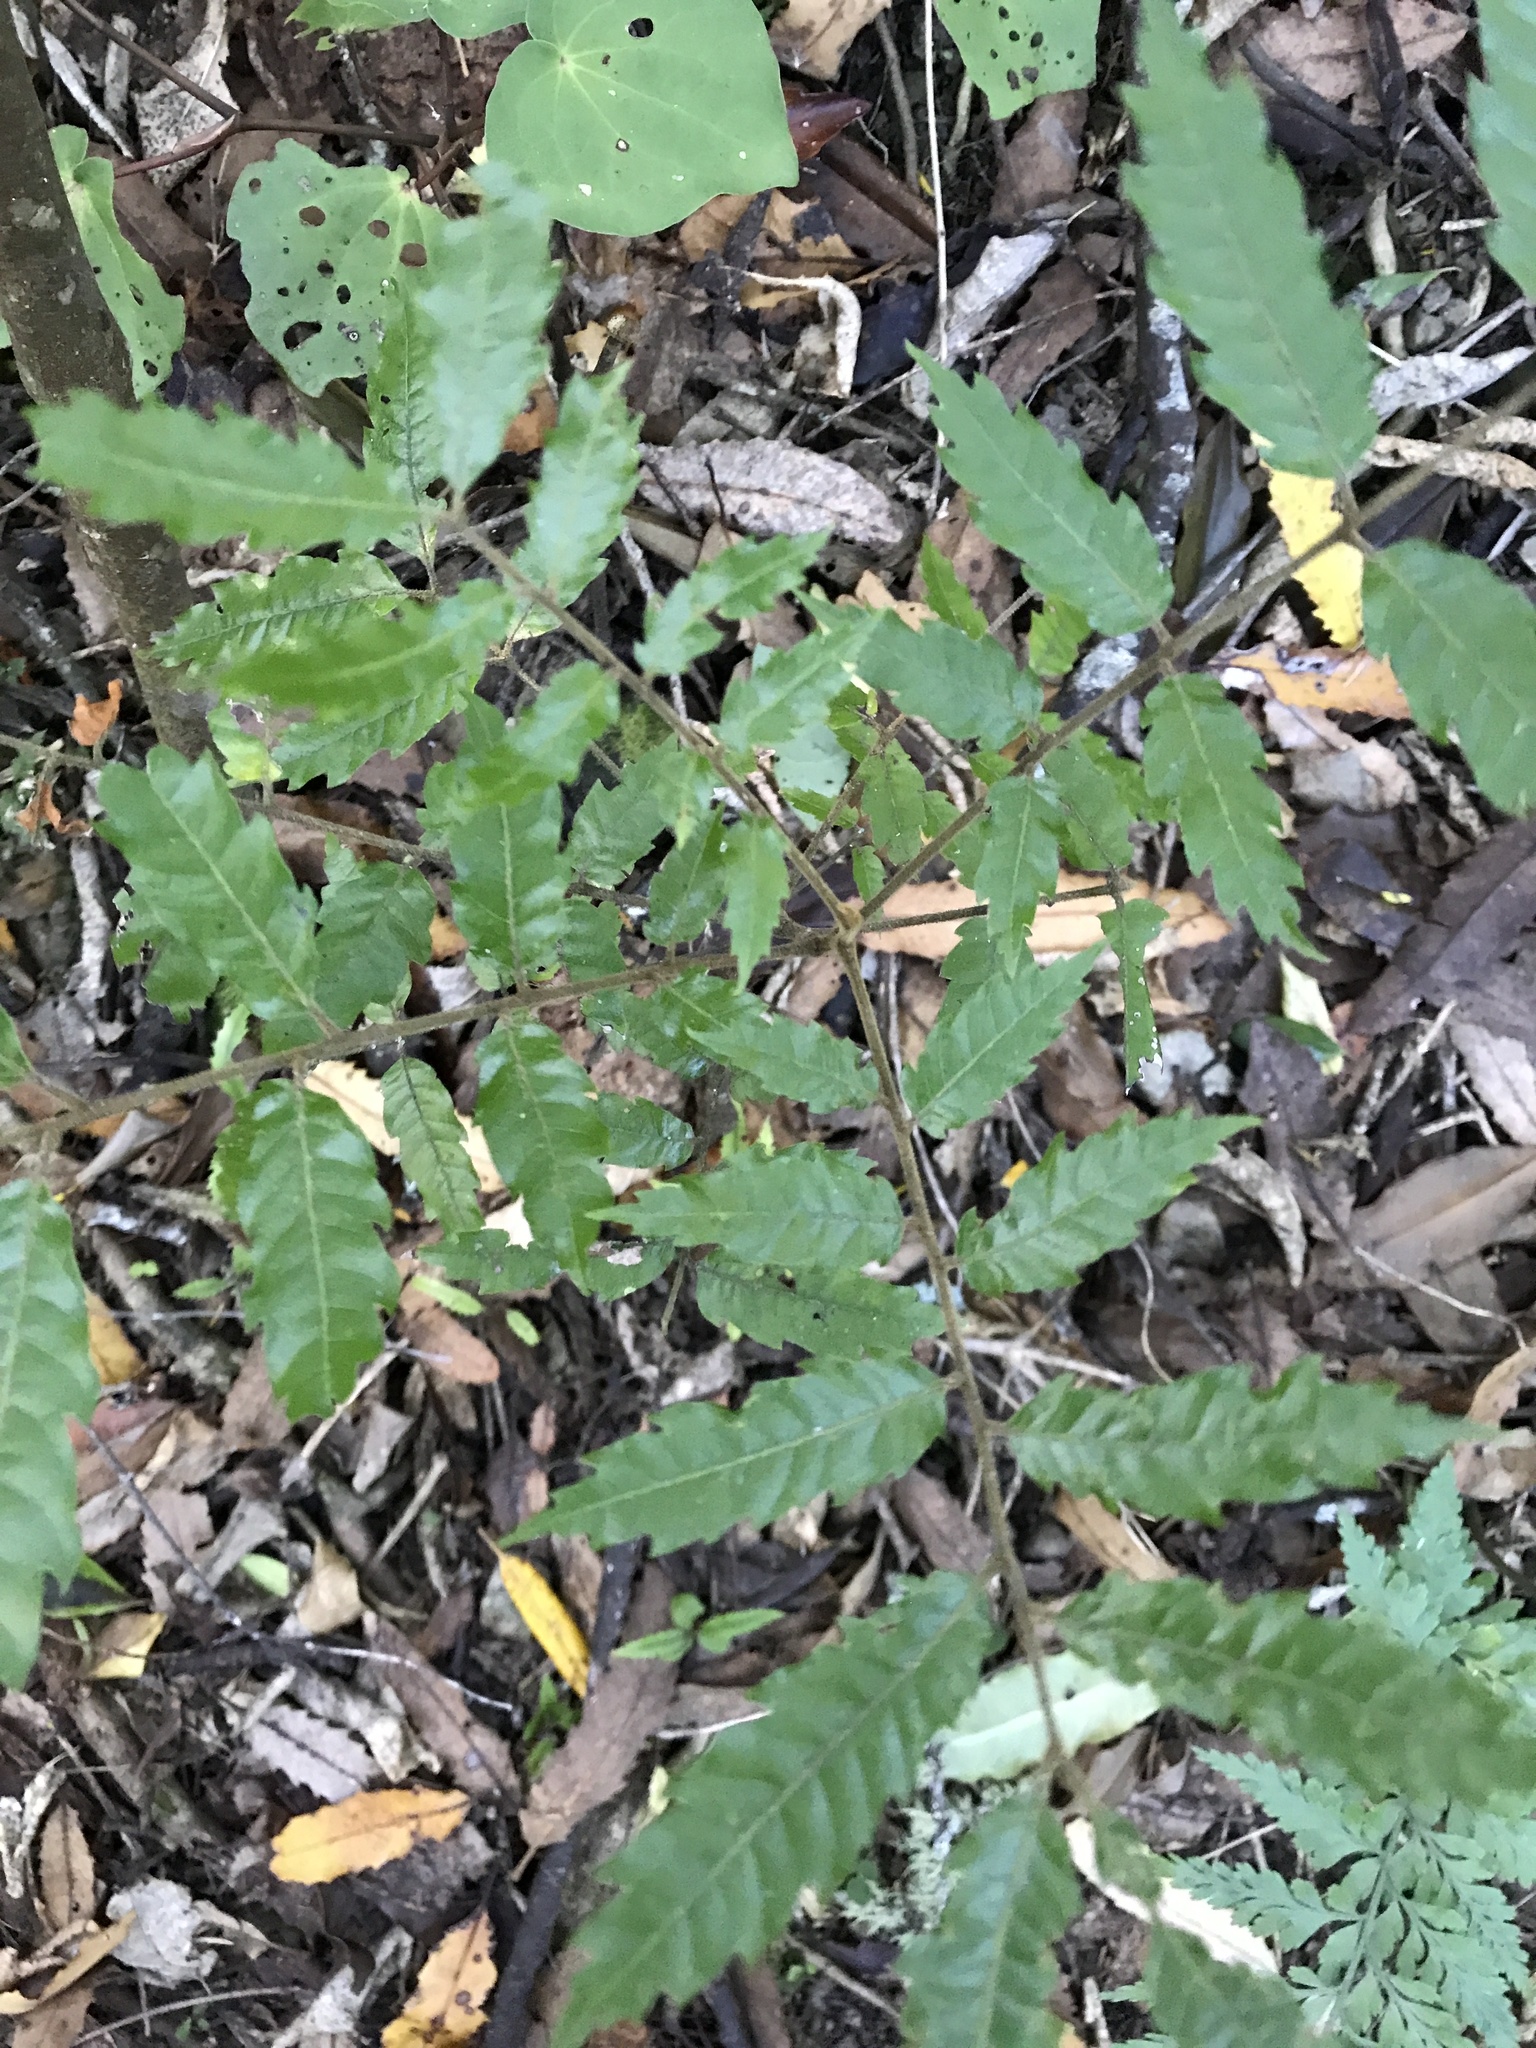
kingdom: Plantae
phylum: Tracheophyta
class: Magnoliopsida
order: Sapindales
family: Sapindaceae
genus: Alectryon
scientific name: Alectryon excelsus
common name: Three kings titoki
